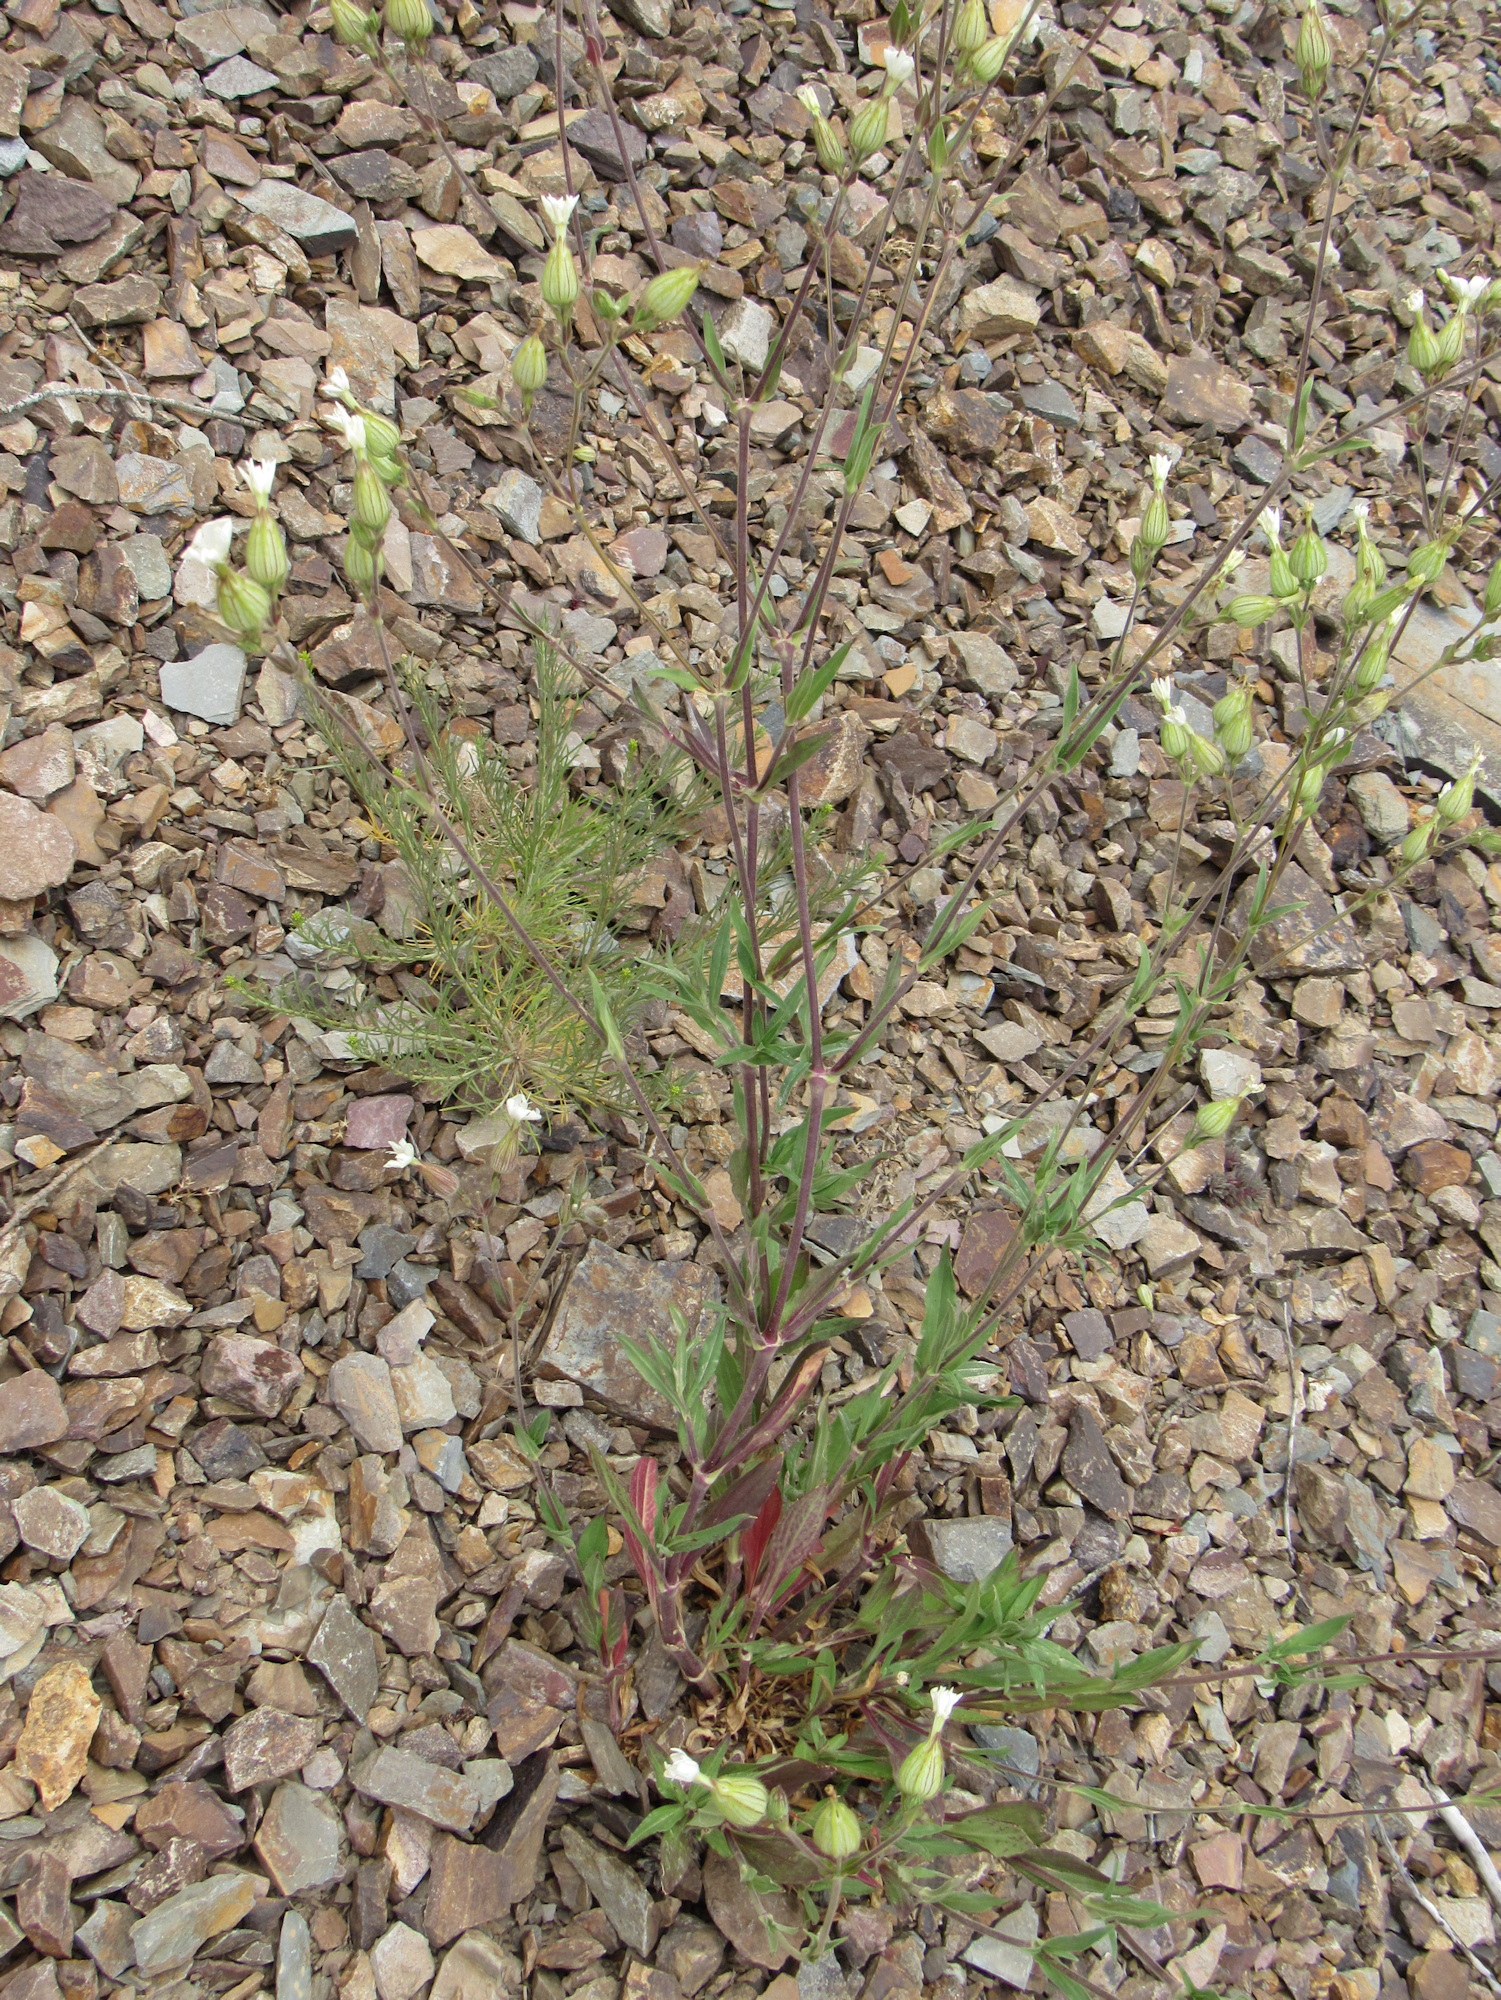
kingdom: Plantae
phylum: Tracheophyta
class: Magnoliopsida
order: Caryophyllales
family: Caryophyllaceae
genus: Silene
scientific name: Silene latifolia
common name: White campion
